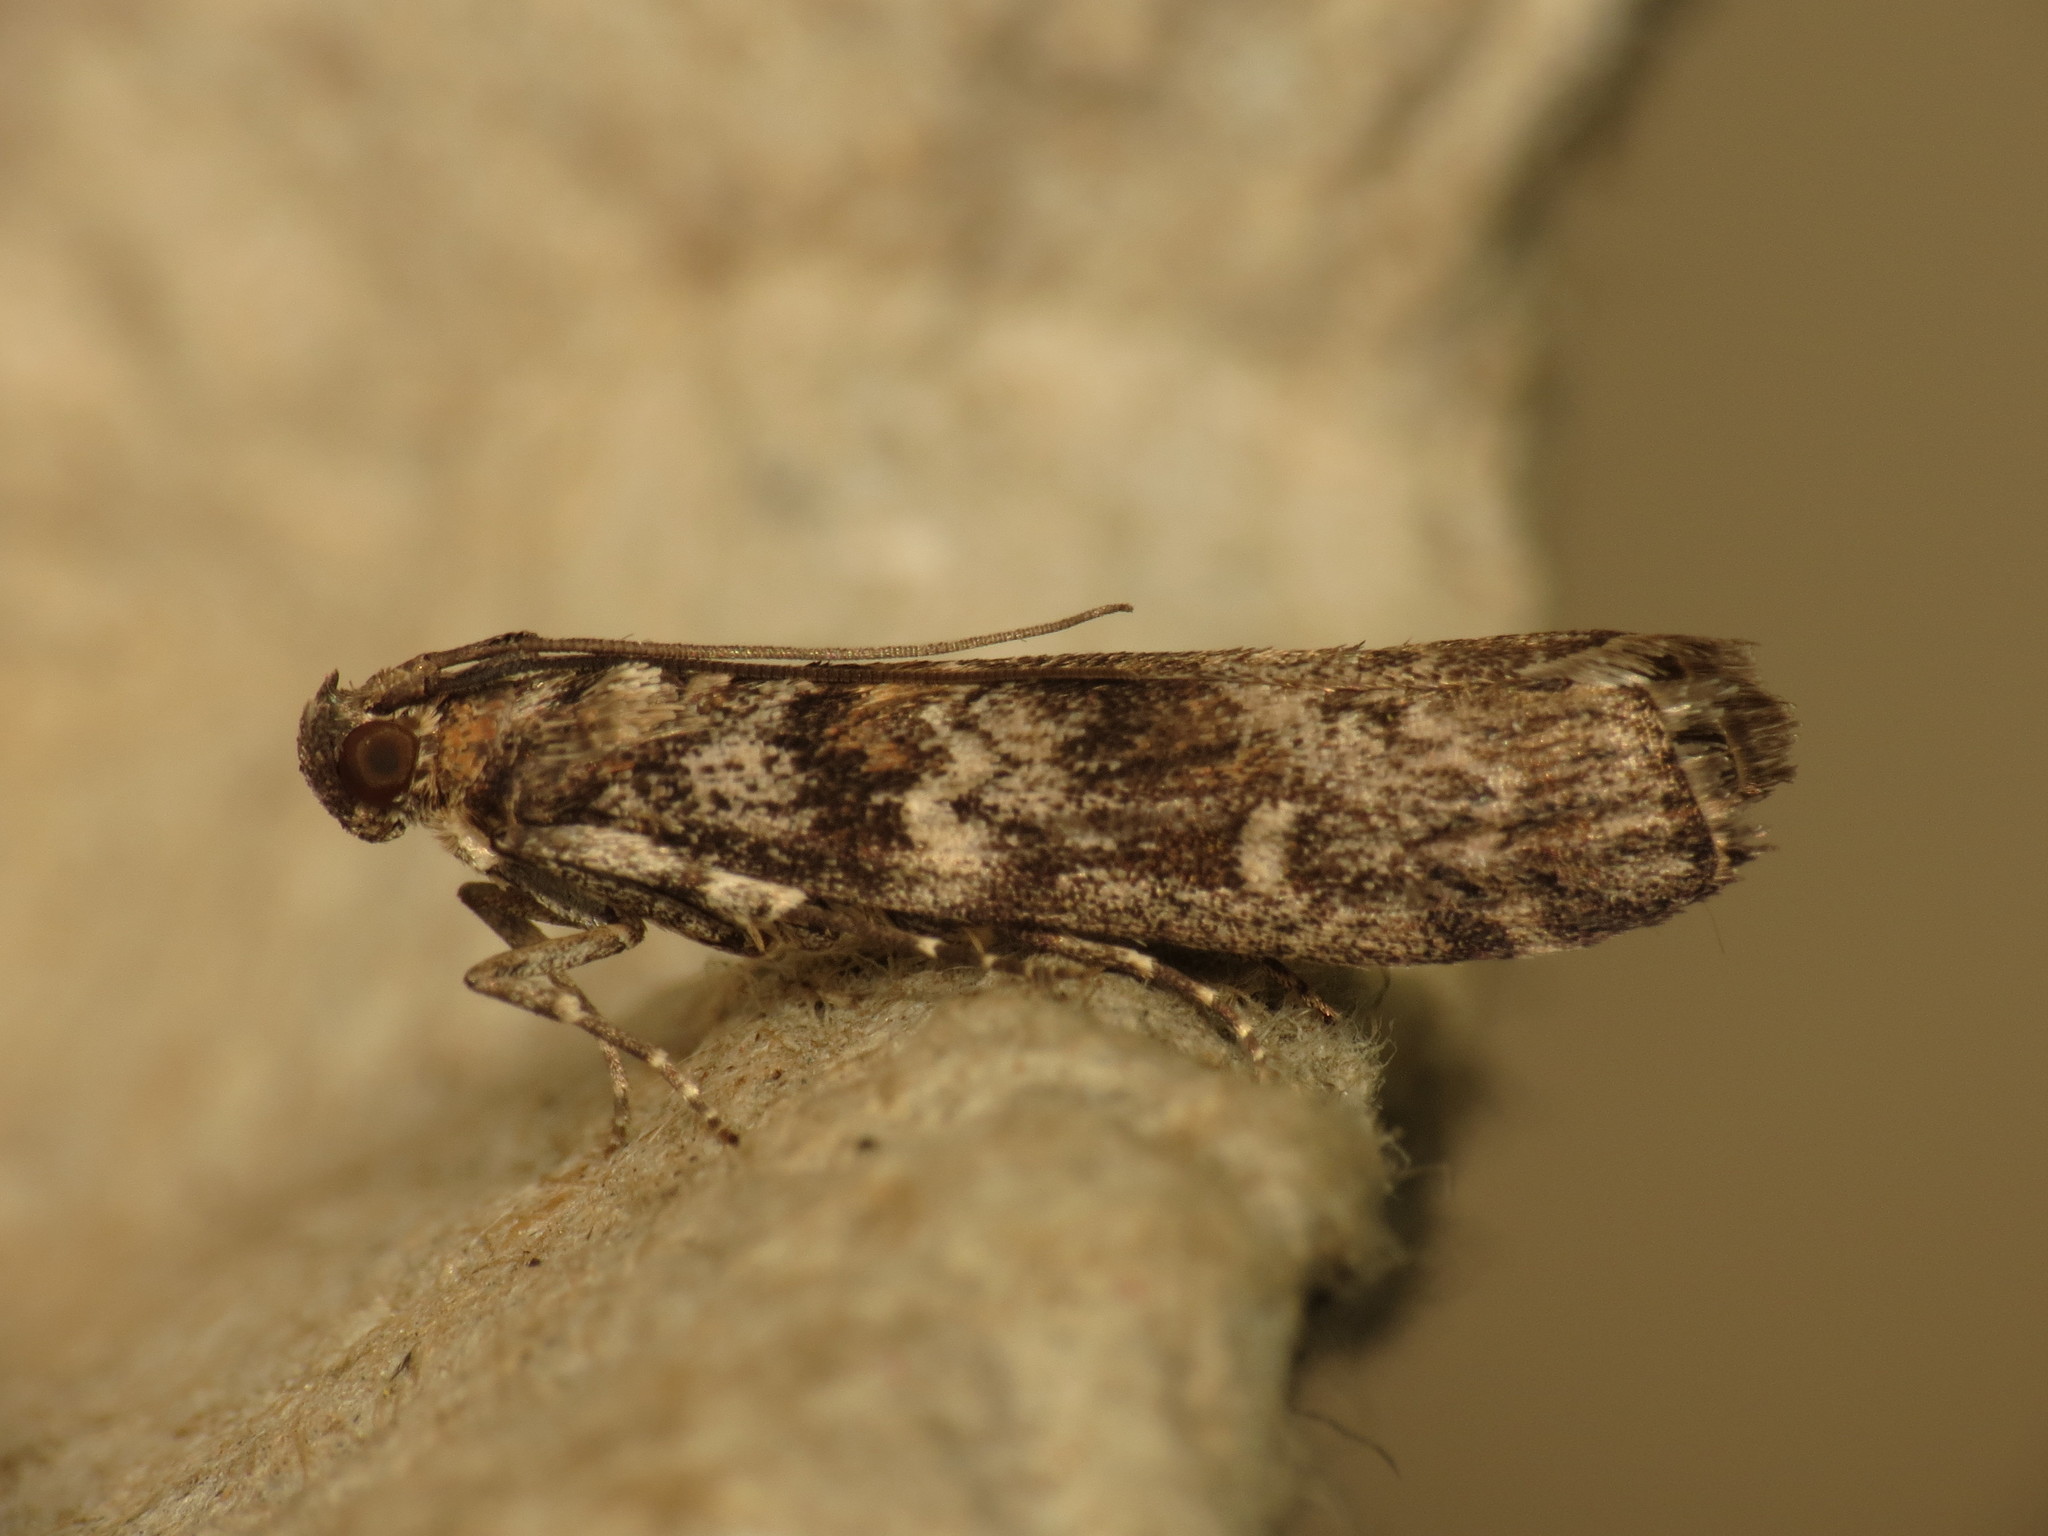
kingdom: Animalia
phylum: Arthropoda
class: Insecta
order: Lepidoptera
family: Pyralidae
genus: Dioryctria
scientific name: Dioryctria abietella
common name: Dark pine knot-horn
